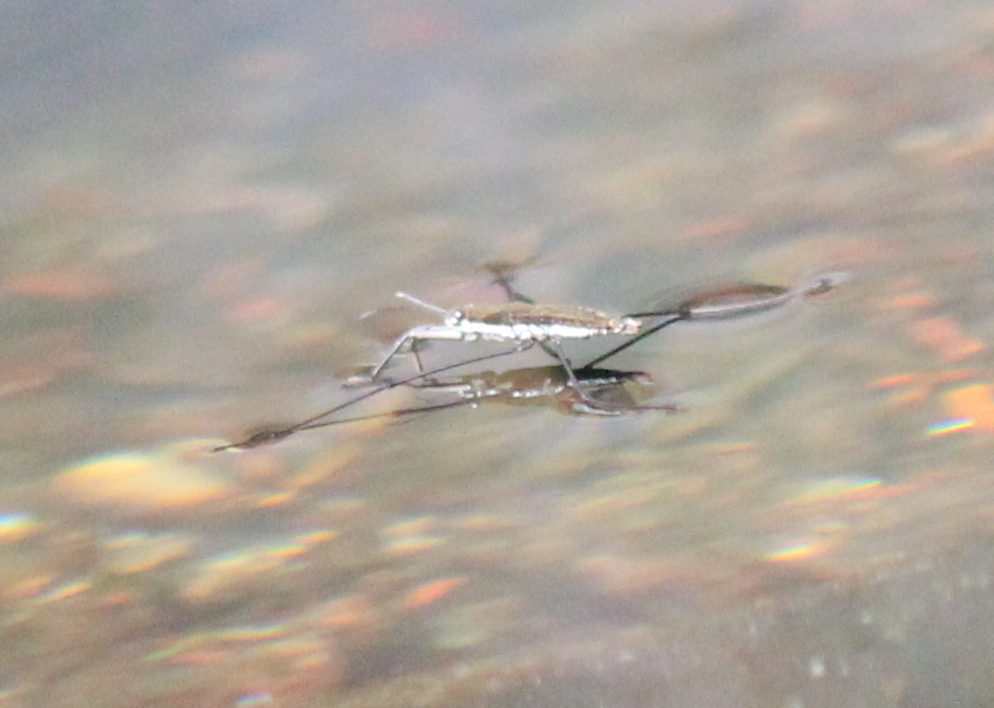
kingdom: Animalia
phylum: Arthropoda
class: Insecta
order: Hemiptera
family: Gerridae
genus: Aquarius
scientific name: Aquarius remigis
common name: Common water strider
